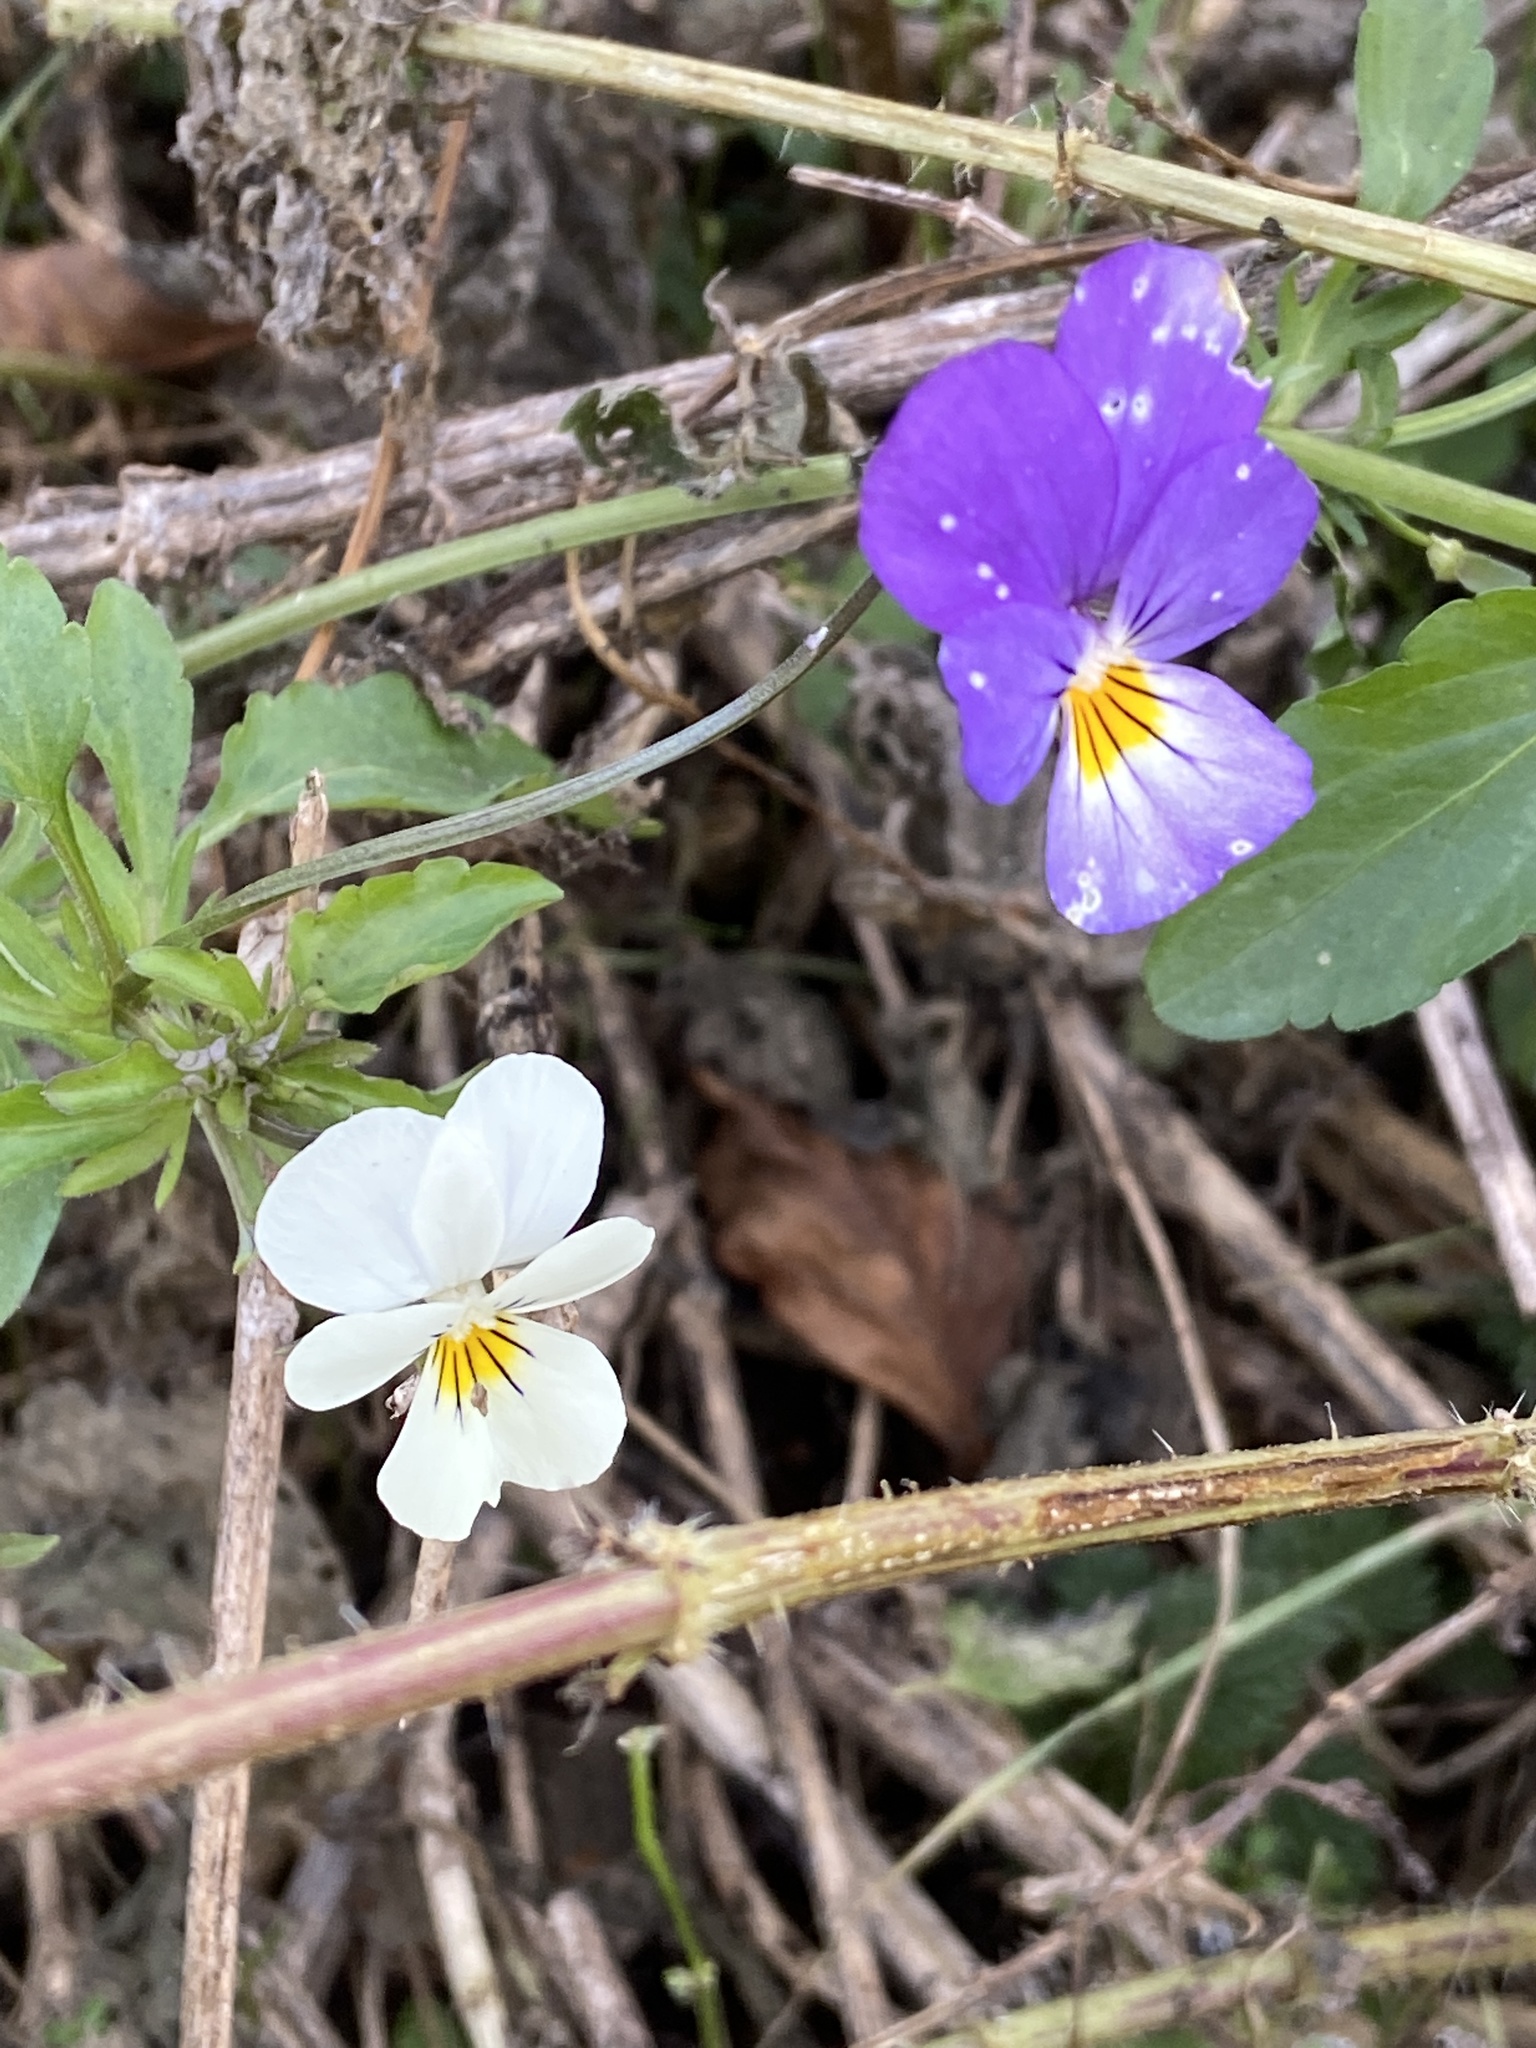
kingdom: Plantae
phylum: Tracheophyta
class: Magnoliopsida
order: Malpighiales
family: Violaceae
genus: Viola
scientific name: Viola tricolor
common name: Pansy
